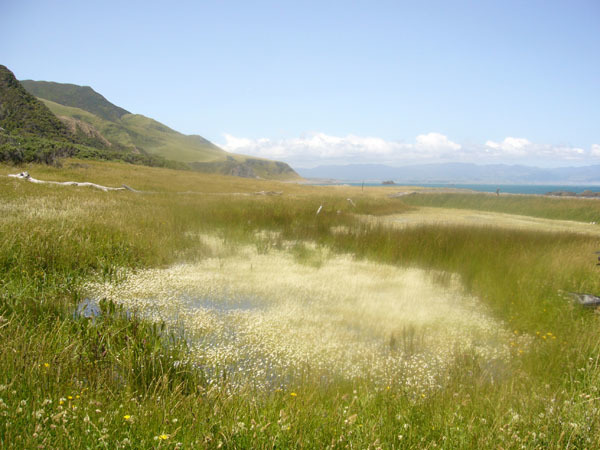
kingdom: Plantae
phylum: Tracheophyta
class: Magnoliopsida
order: Ranunculales
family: Ranunculaceae
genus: Ranunculus
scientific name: Ranunculus trichophyllus
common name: Thread-leaved water-crowfoot
